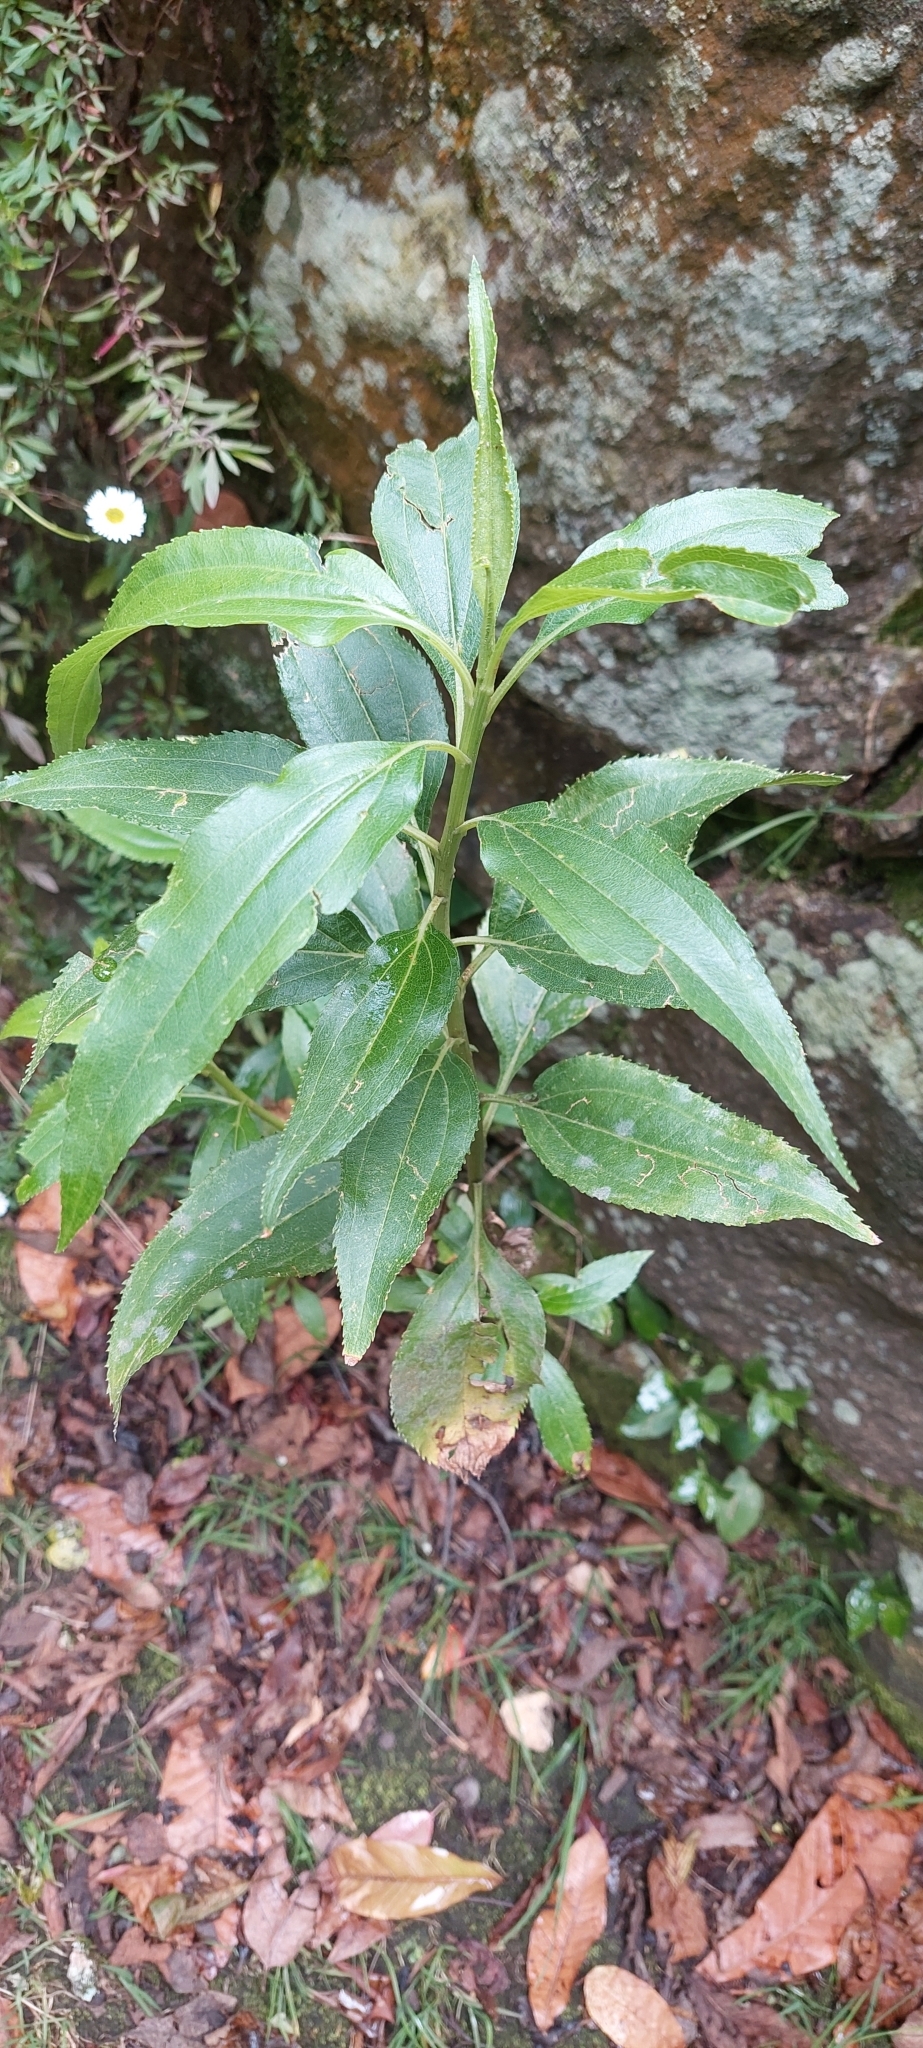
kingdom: Plantae
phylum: Tracheophyta
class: Magnoliopsida
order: Asterales
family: Asteraceae
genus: Baccharis
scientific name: Baccharis latifolia
